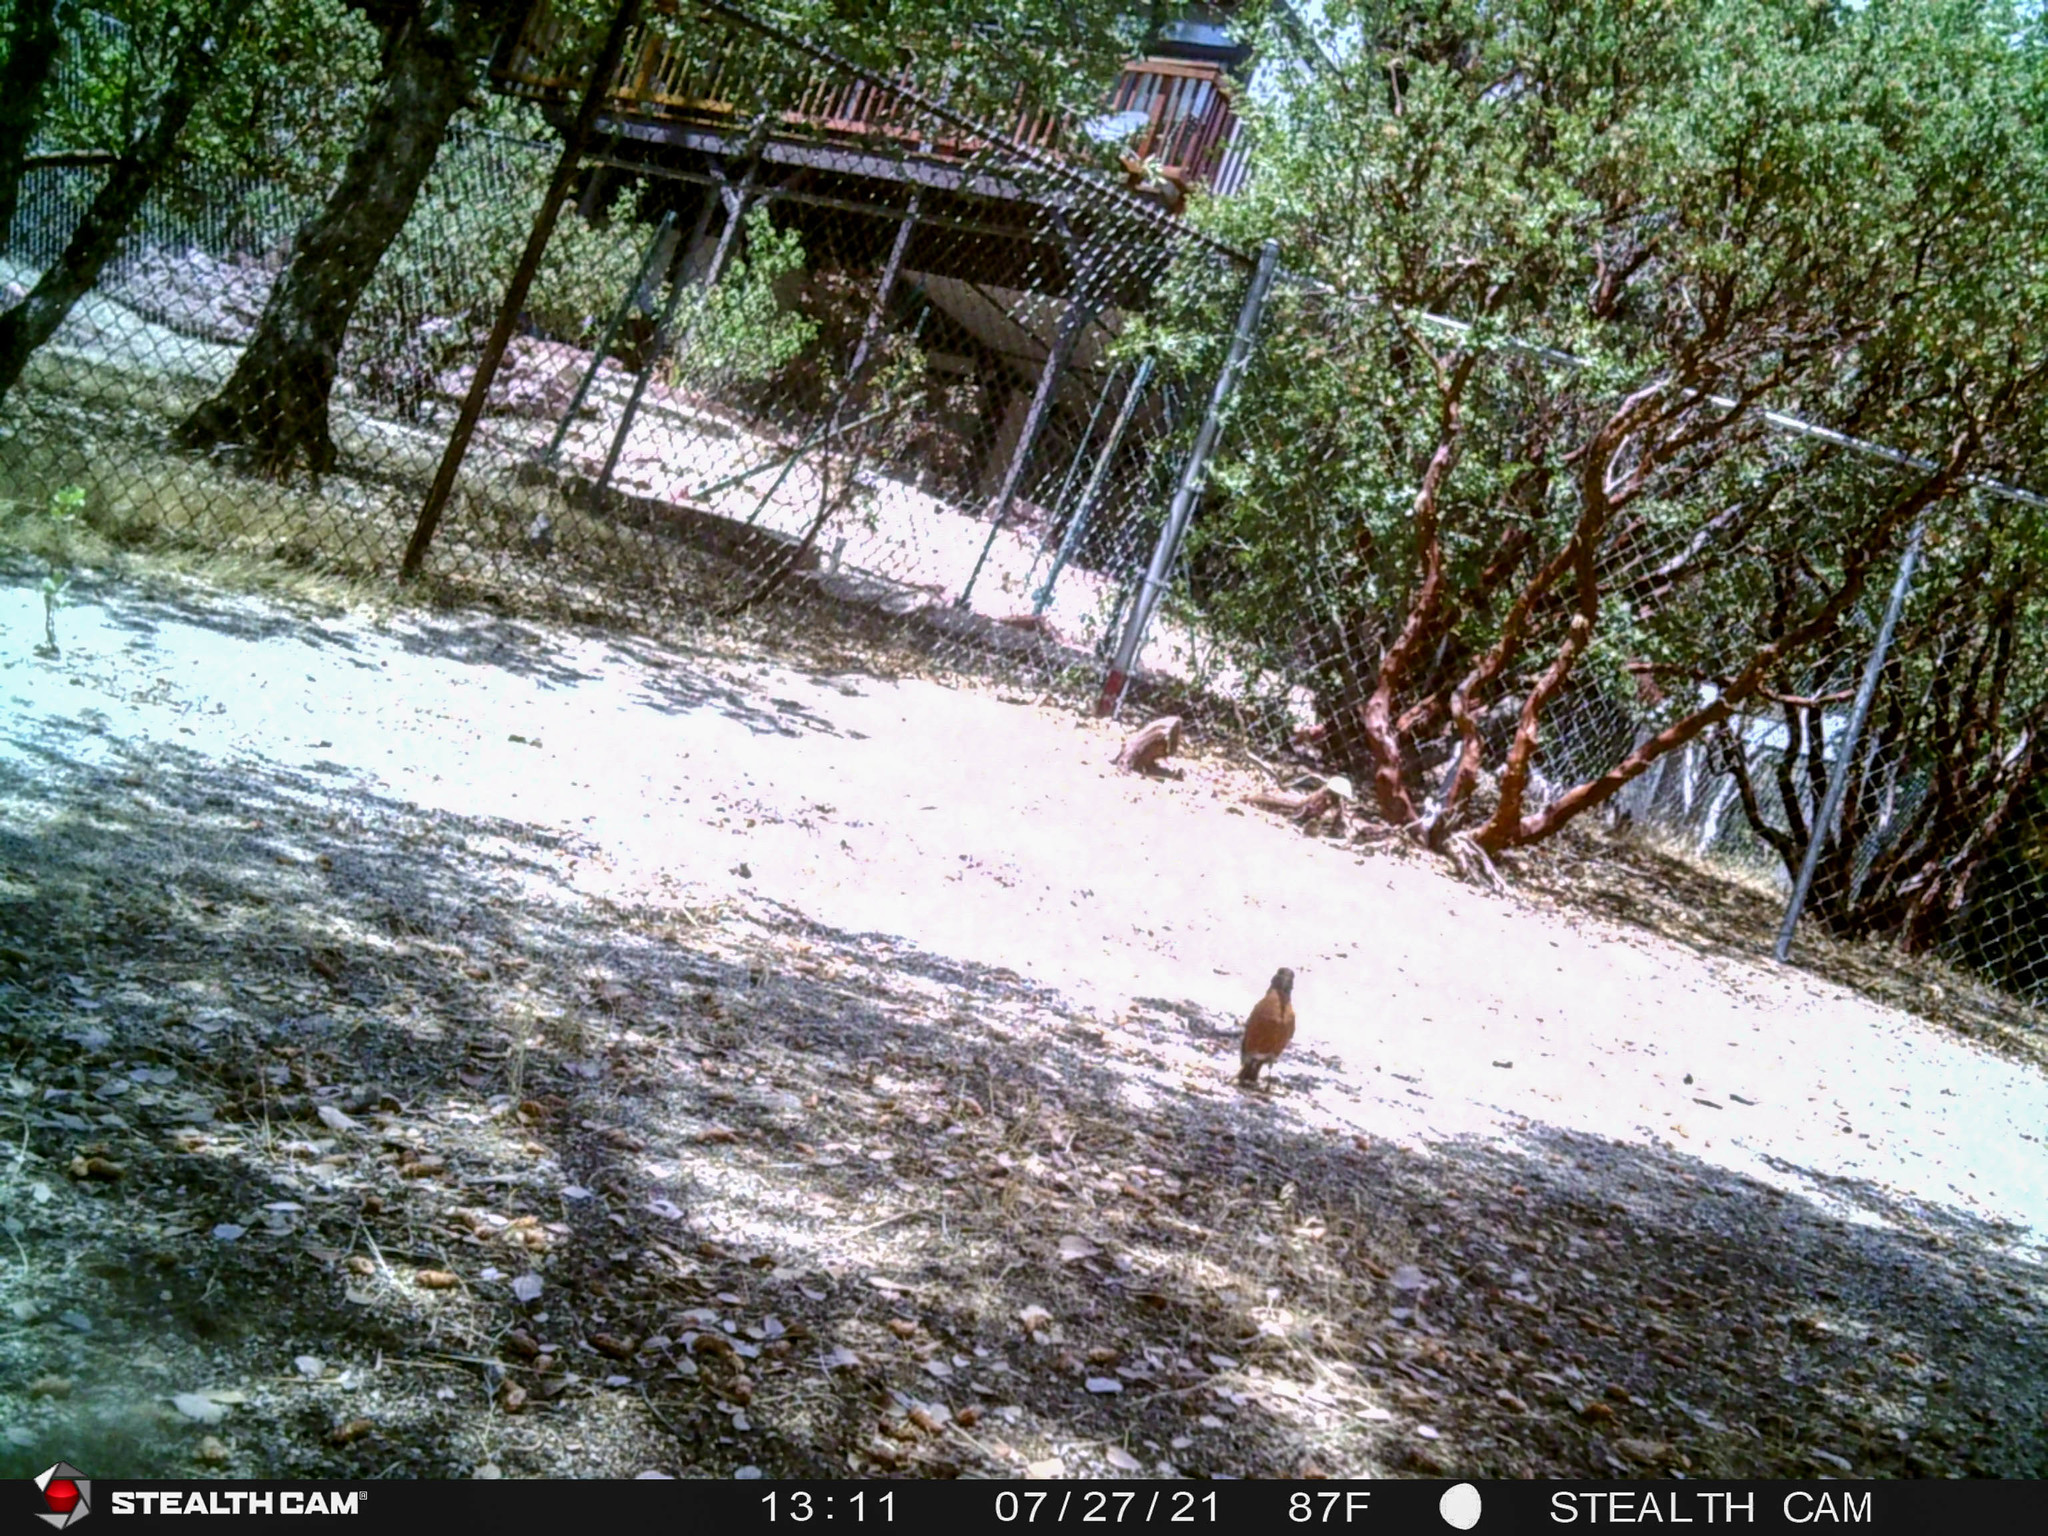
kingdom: Animalia
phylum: Chordata
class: Aves
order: Passeriformes
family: Turdidae
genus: Turdus
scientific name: Turdus migratorius
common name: American robin
